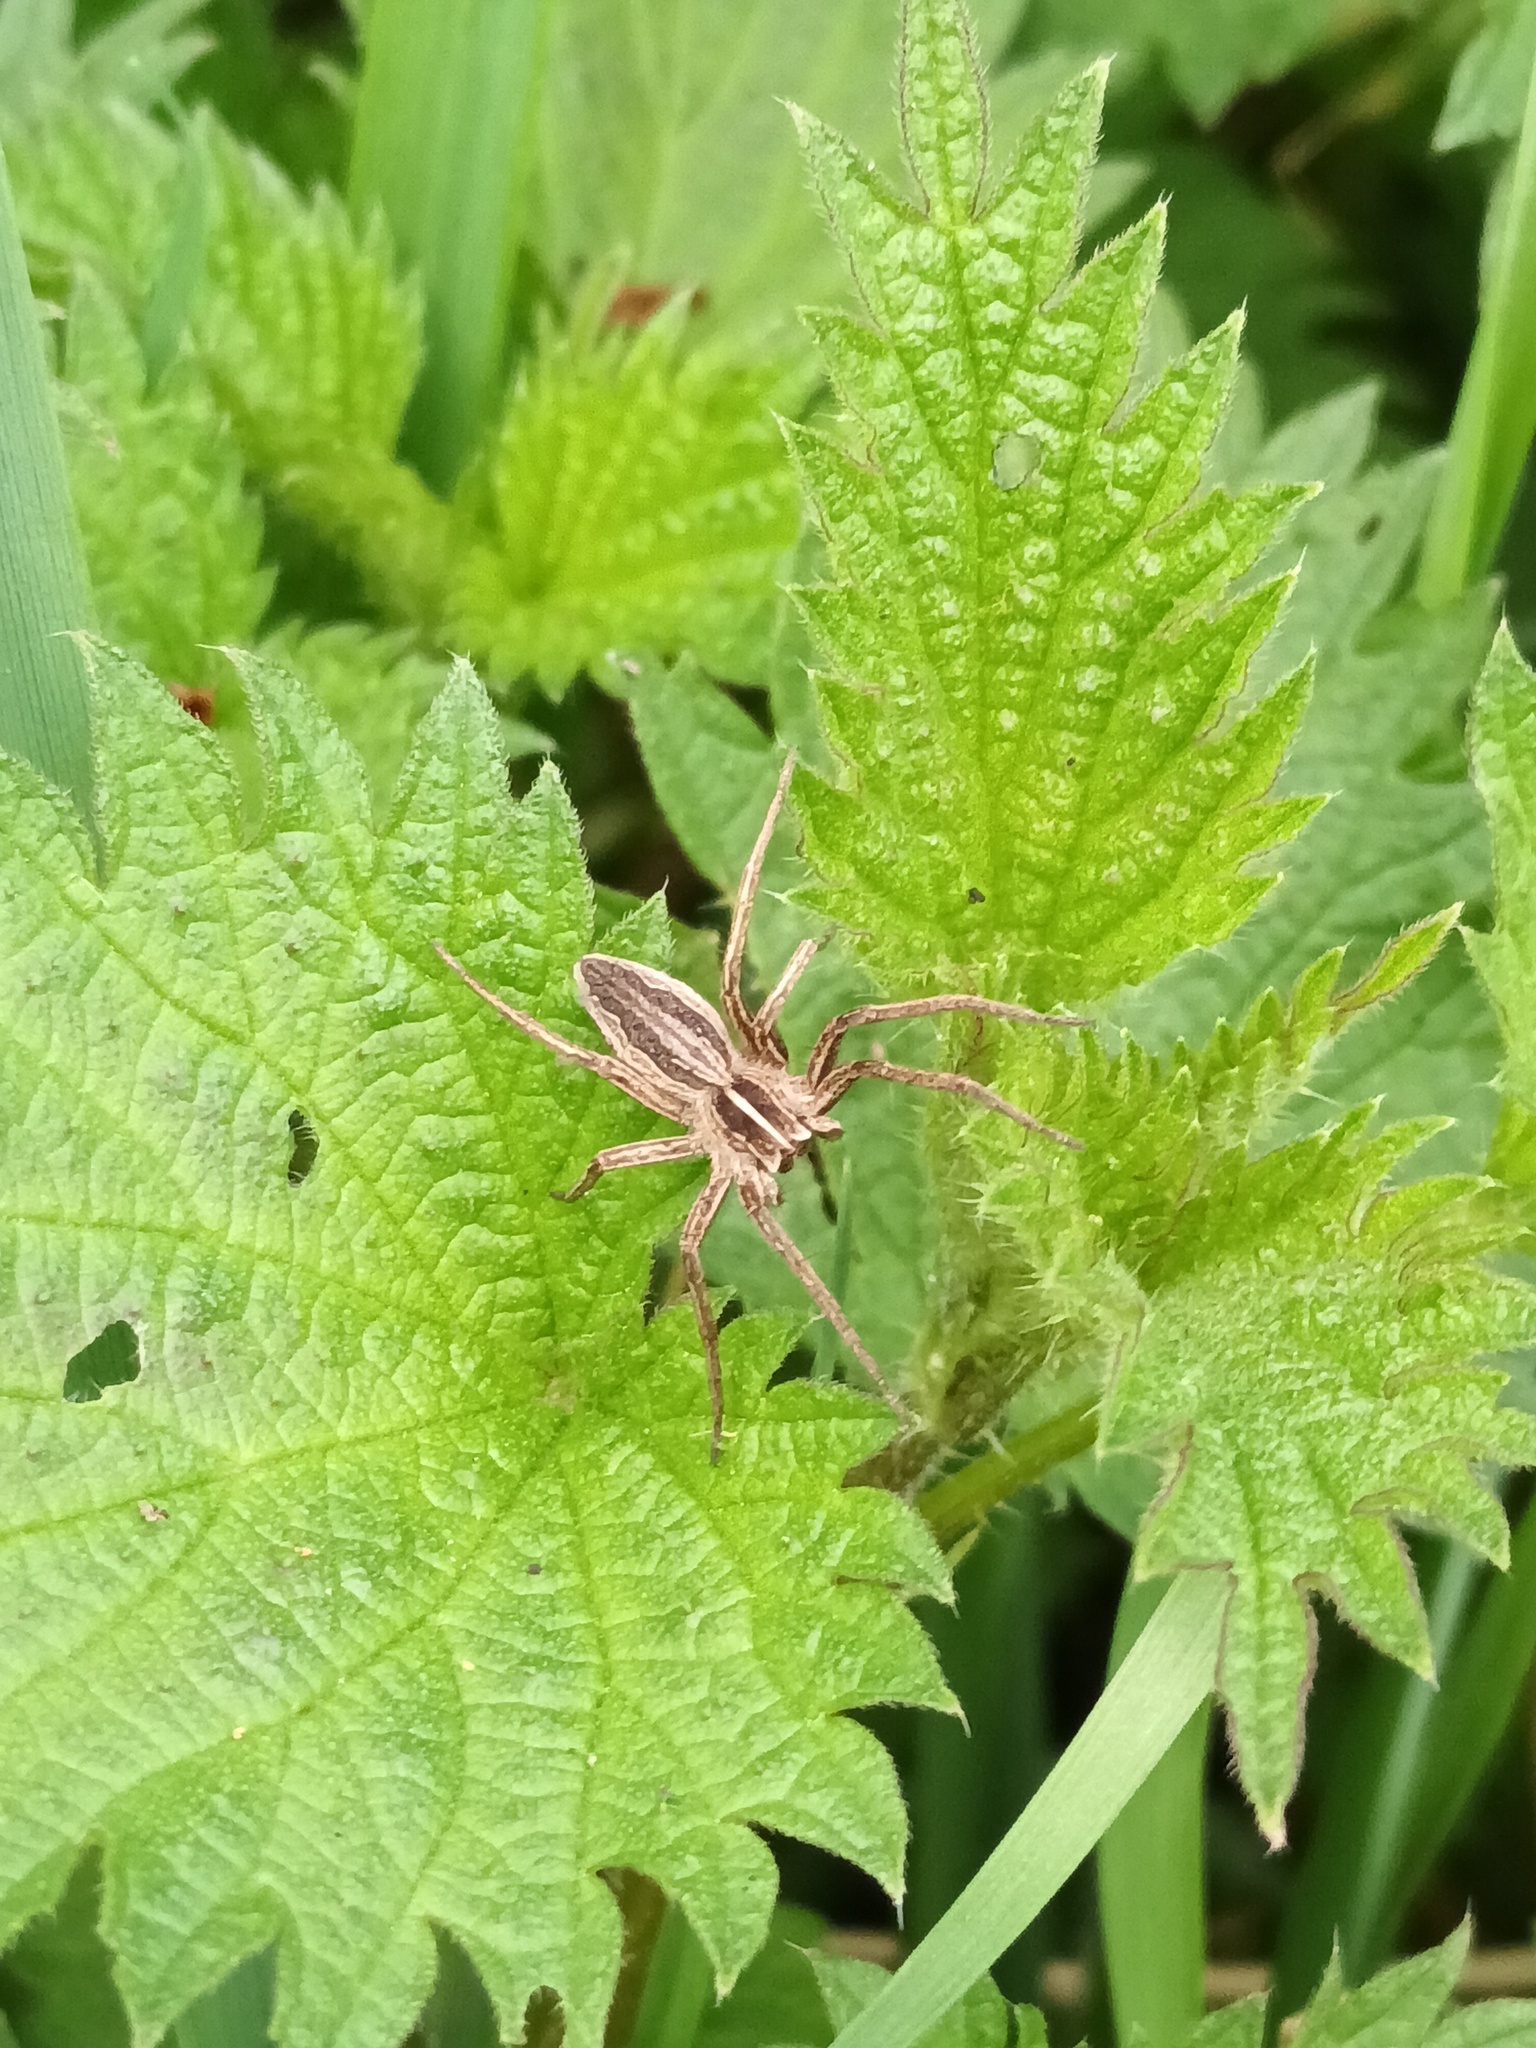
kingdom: Animalia
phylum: Arthropoda
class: Arachnida
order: Araneae
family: Pisauridae
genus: Pisaura
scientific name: Pisaura mirabilis
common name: Tent spider
